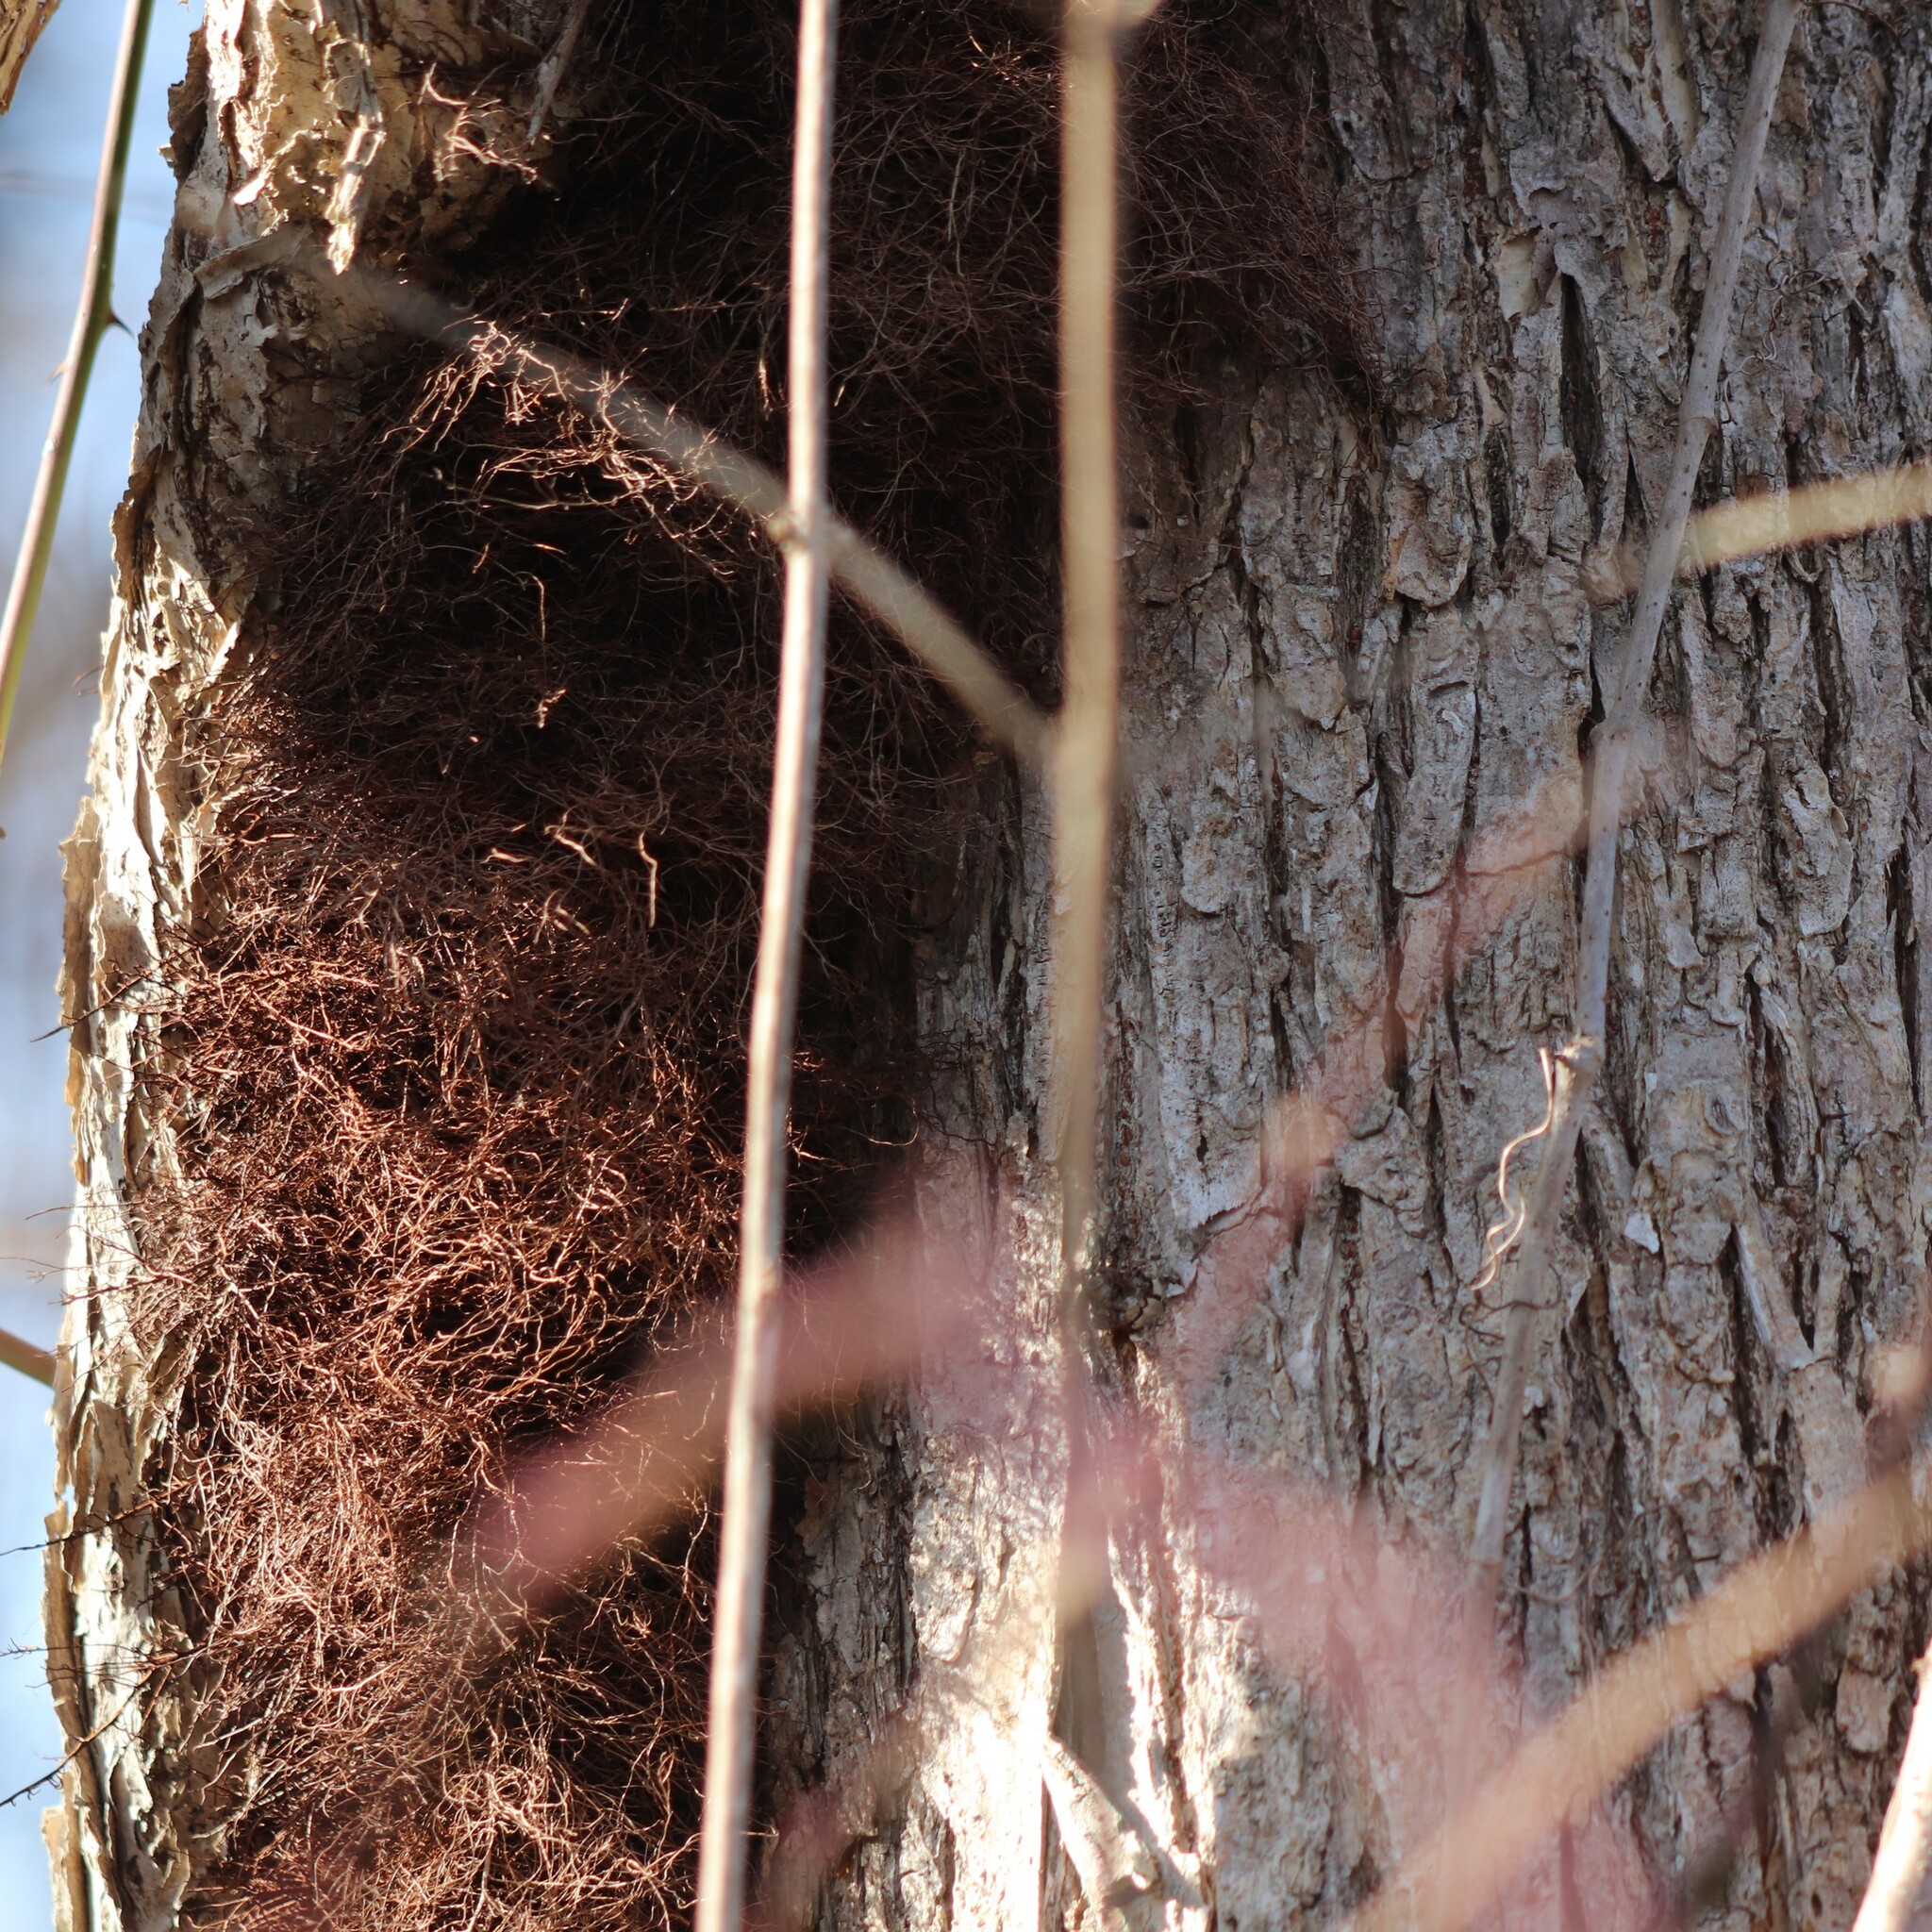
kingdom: Plantae
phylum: Tracheophyta
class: Magnoliopsida
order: Sapindales
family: Anacardiaceae
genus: Toxicodendron
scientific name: Toxicodendron radicans
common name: Poison ivy
